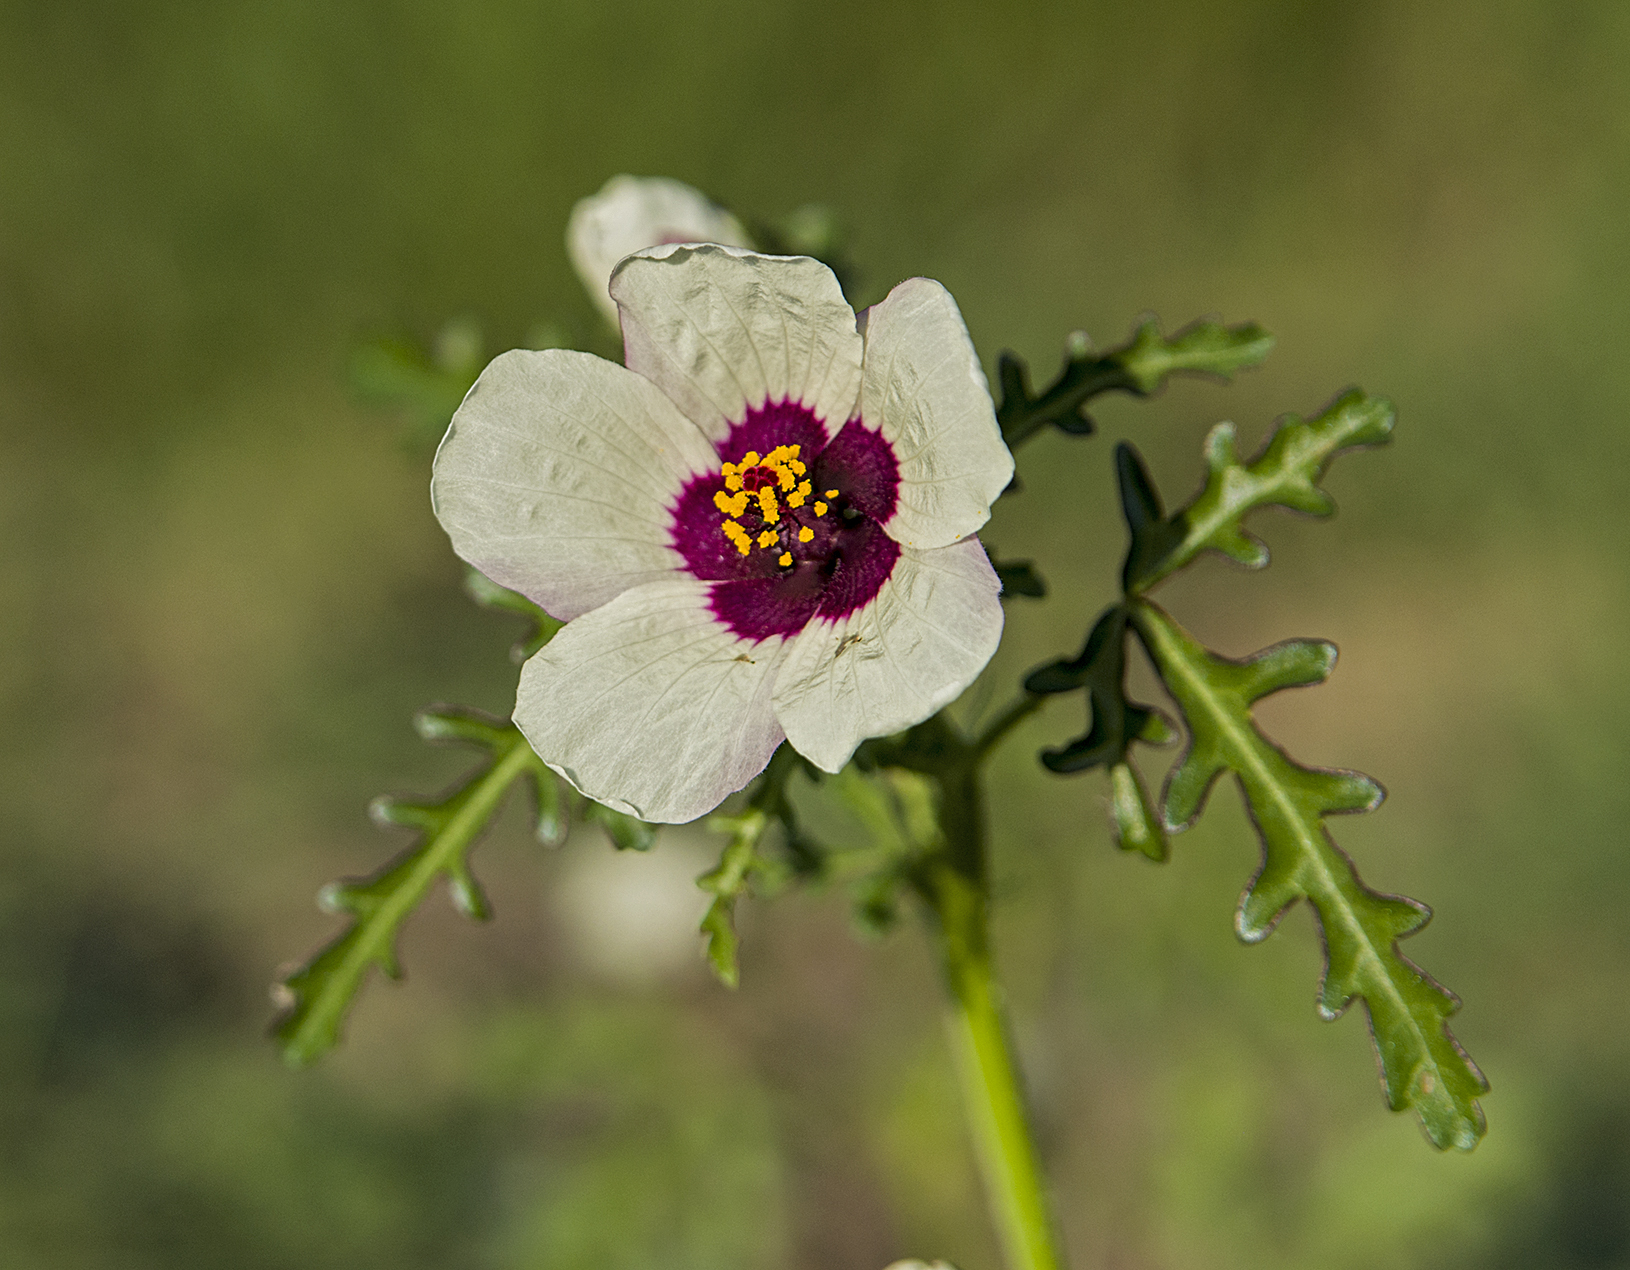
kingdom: Plantae
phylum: Tracheophyta
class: Magnoliopsida
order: Malvales
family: Malvaceae
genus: Hibiscus
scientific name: Hibiscus trionum
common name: Bladder ketmia
